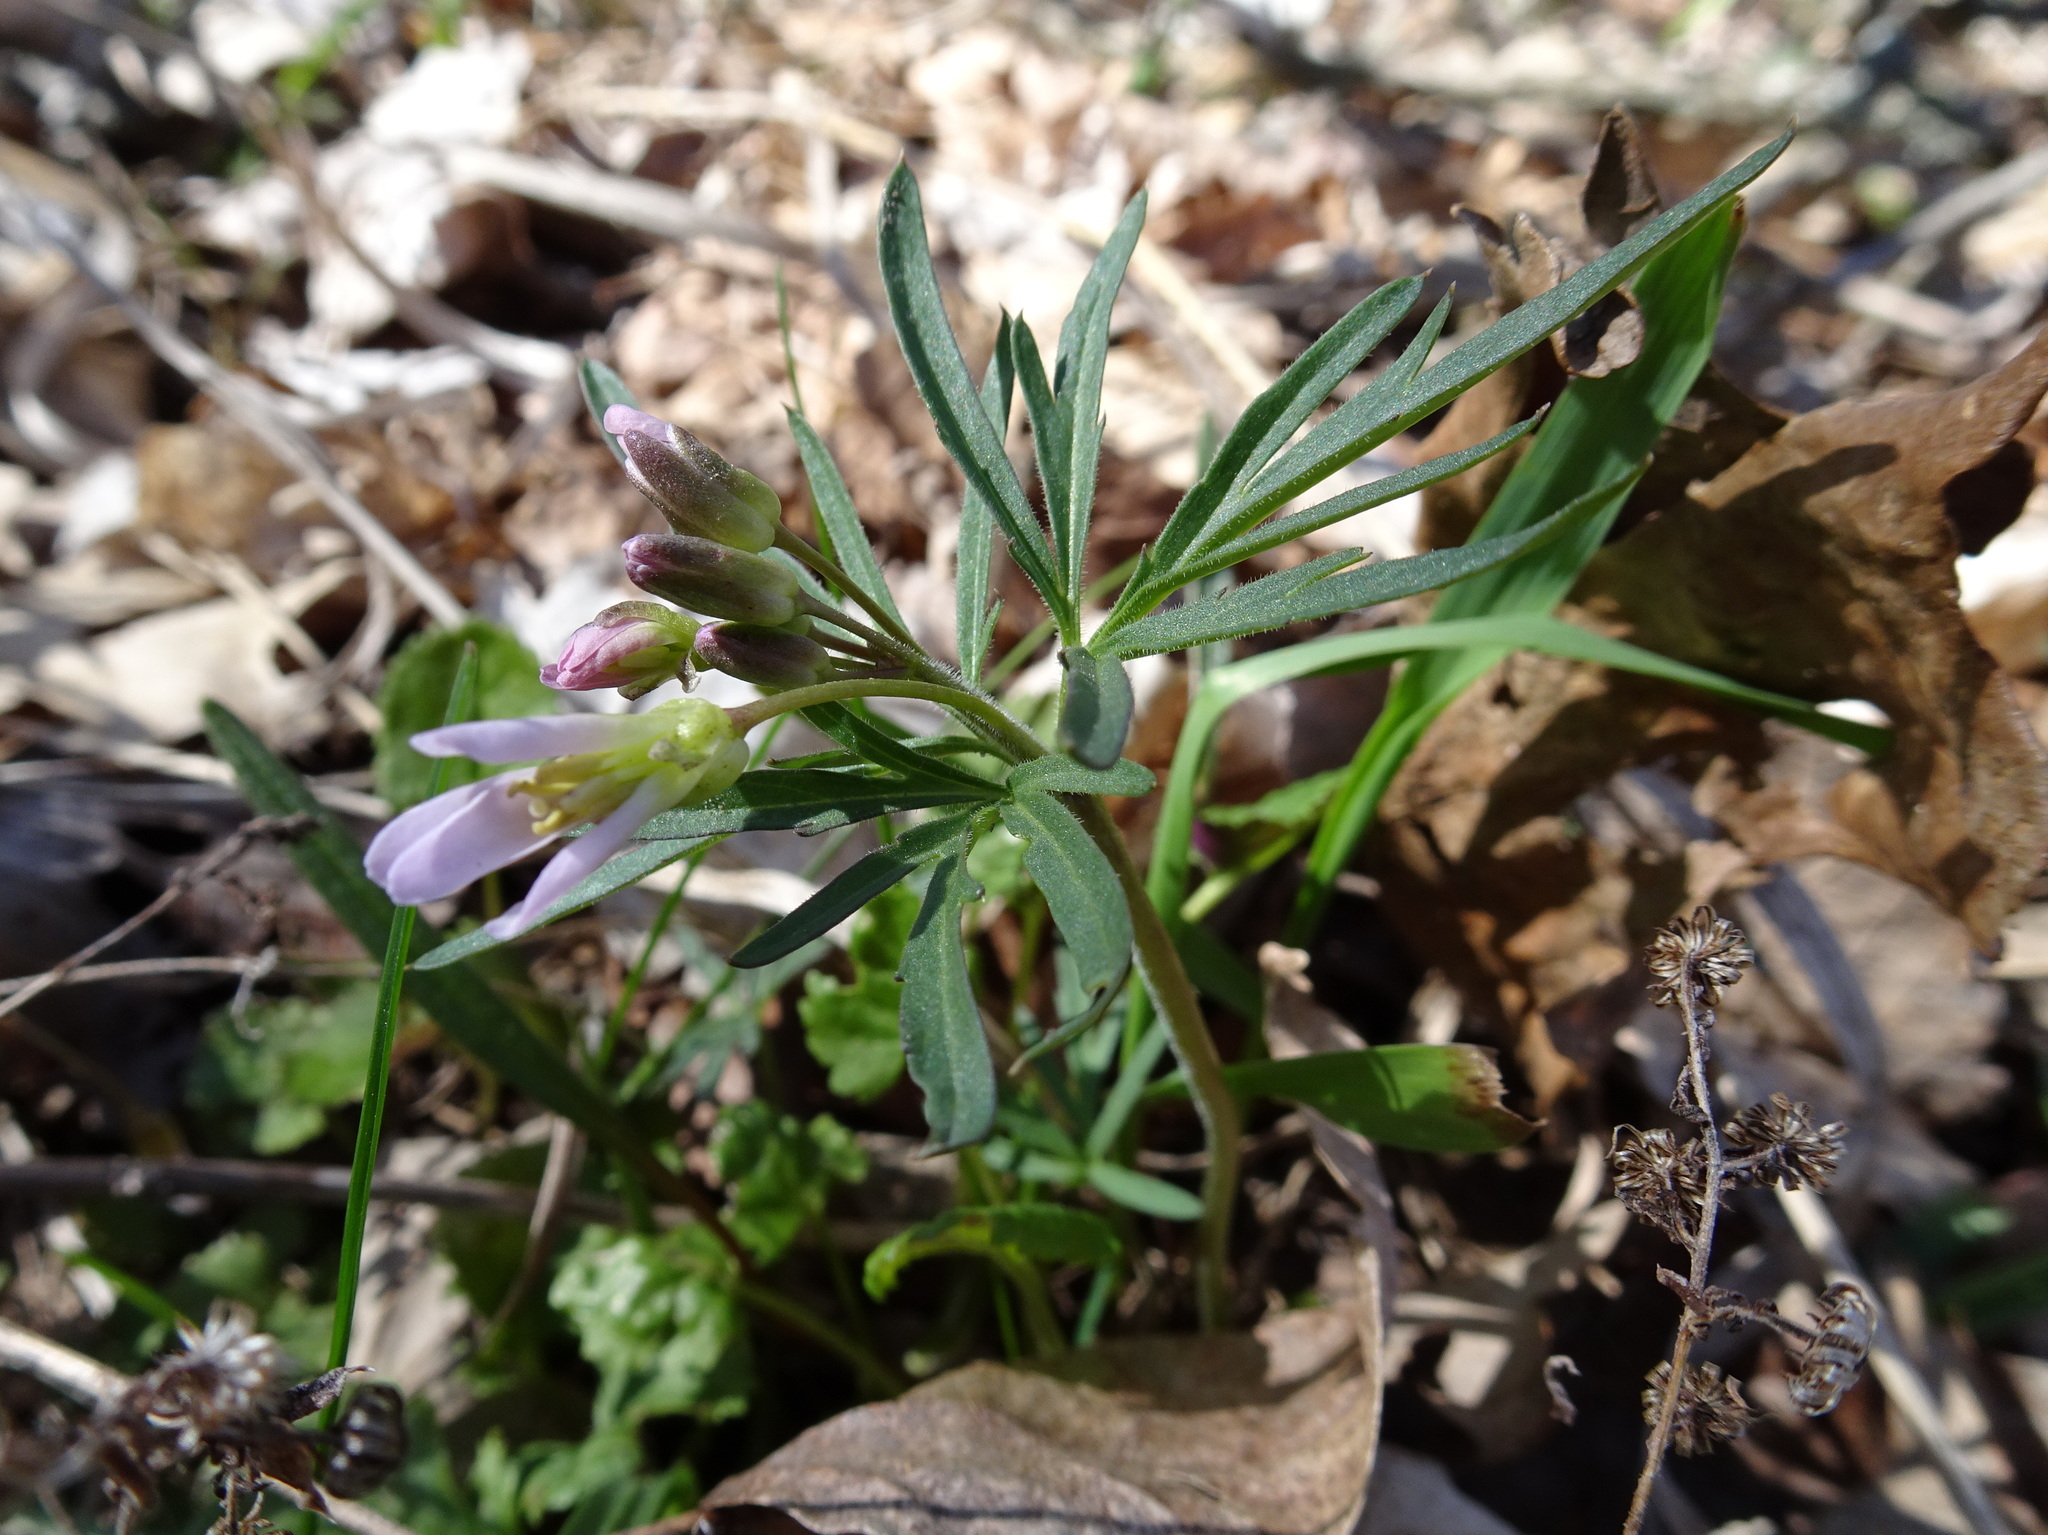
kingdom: Plantae
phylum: Tracheophyta
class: Magnoliopsida
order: Brassicales
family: Brassicaceae
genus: Cardamine
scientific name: Cardamine concatenata
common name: Cut-leaf toothcup
